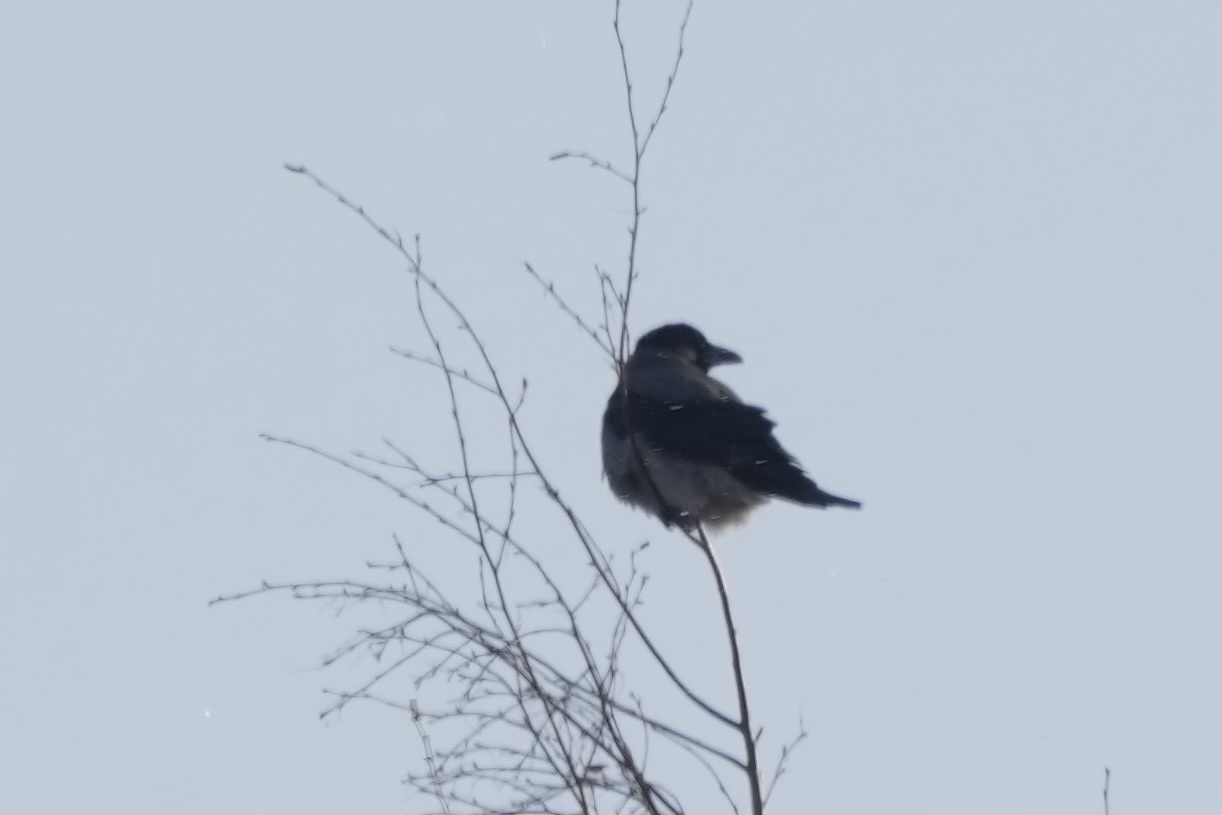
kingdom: Animalia
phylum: Chordata
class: Aves
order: Passeriformes
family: Corvidae
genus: Corvus
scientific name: Corvus cornix
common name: Hooded crow
